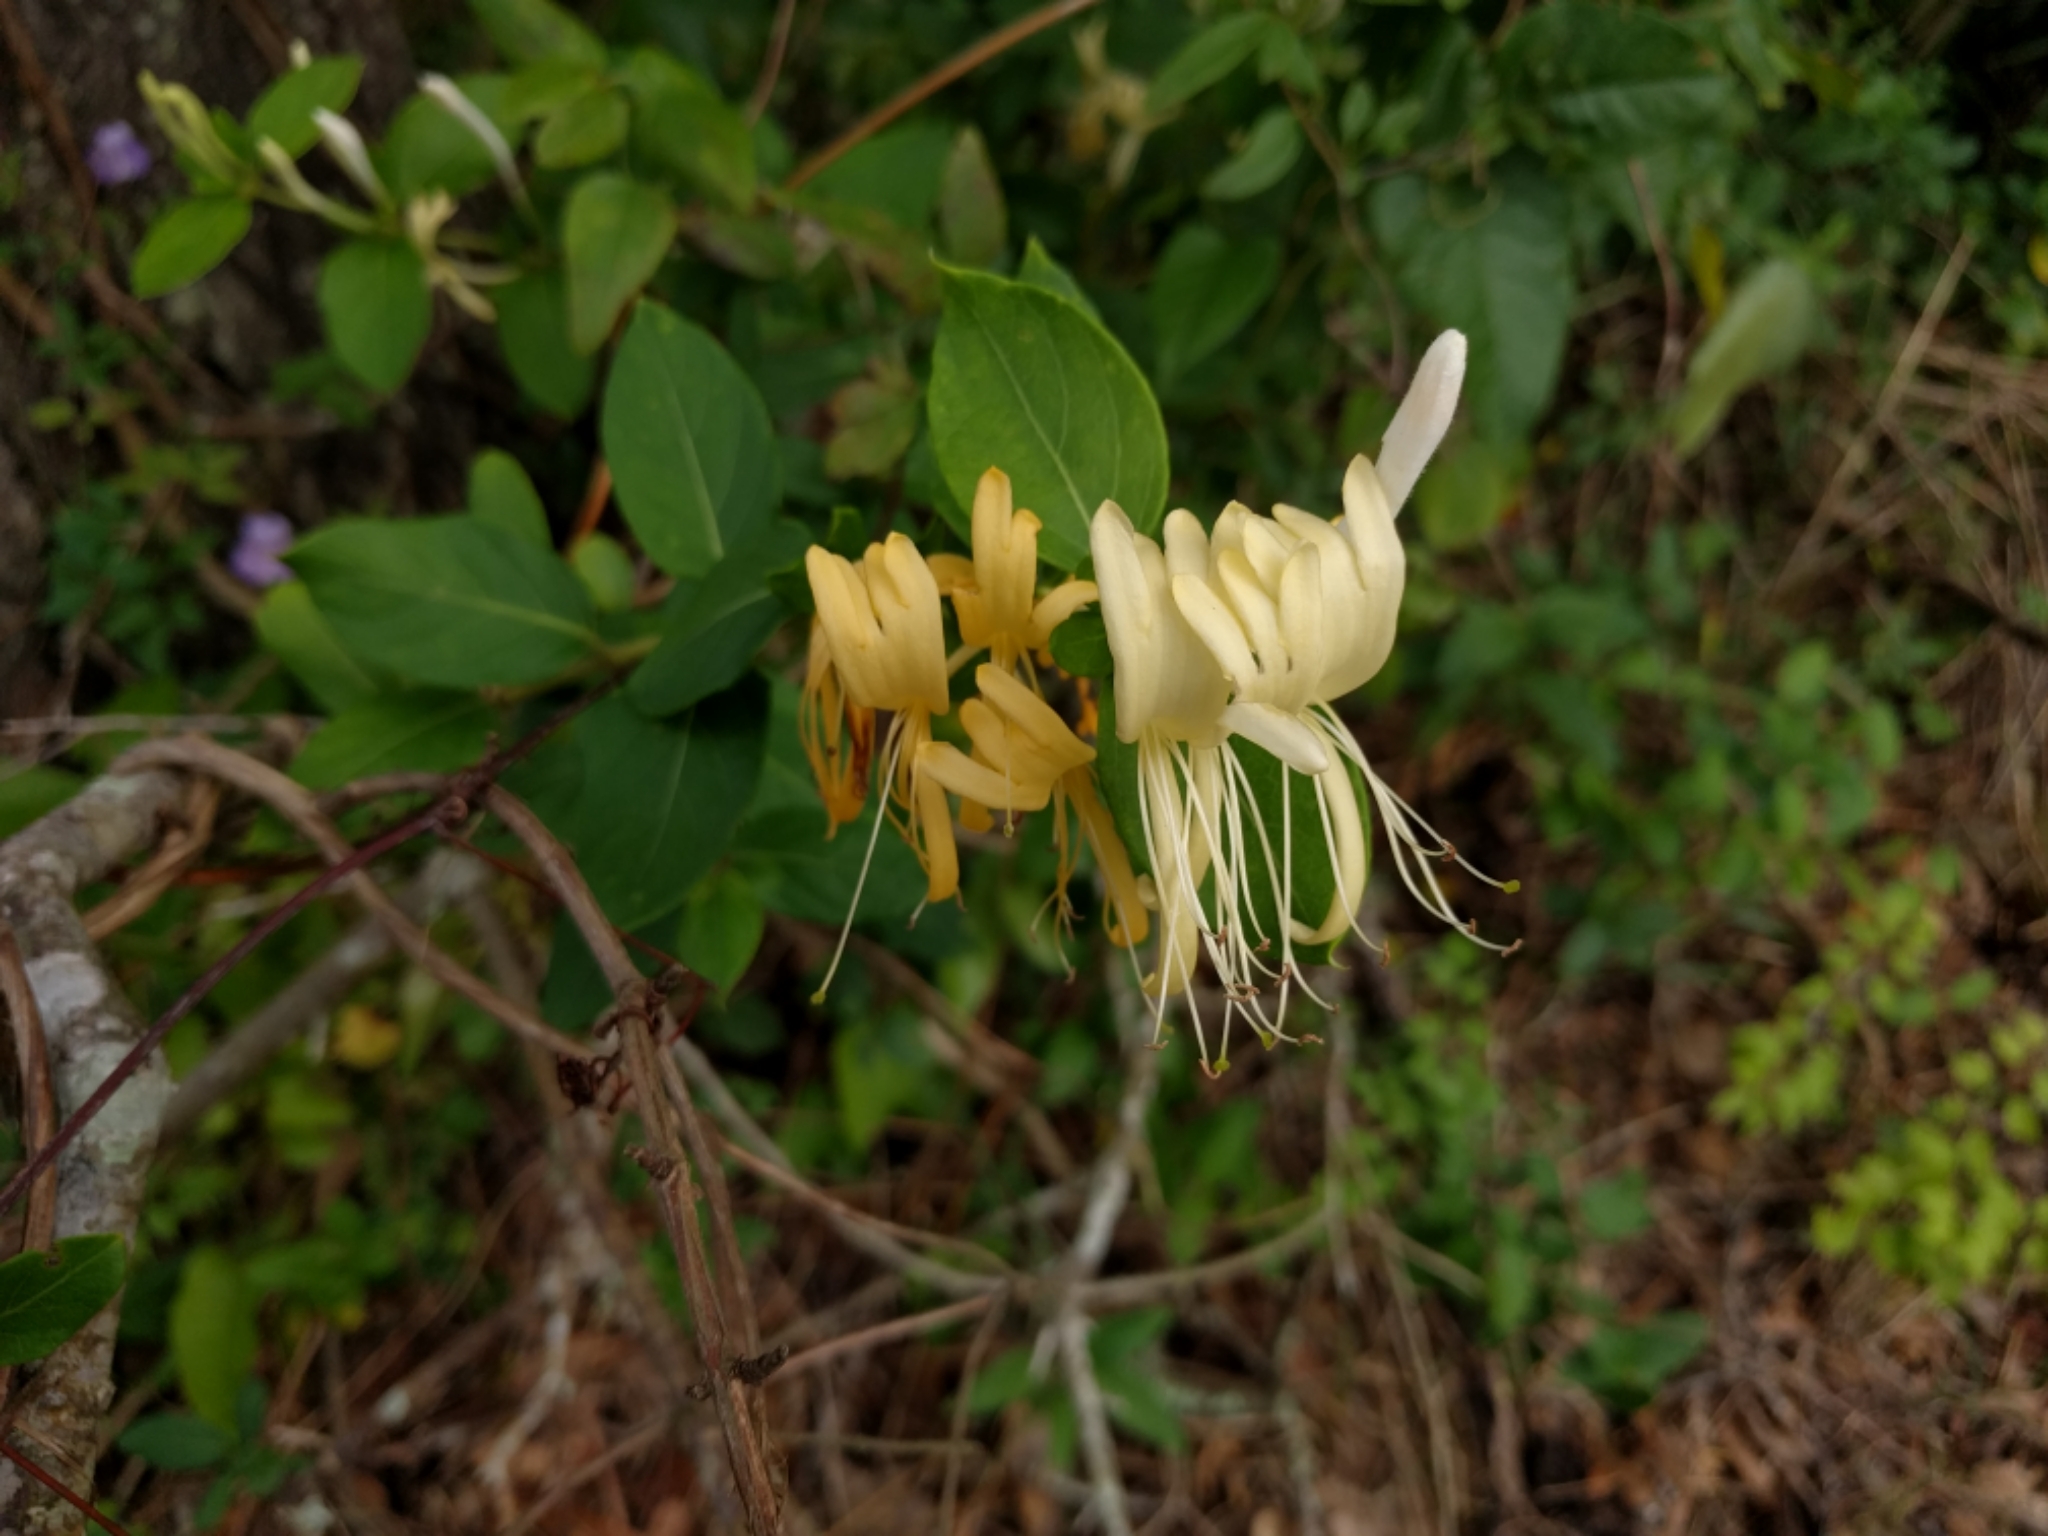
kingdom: Plantae
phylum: Tracheophyta
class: Magnoliopsida
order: Dipsacales
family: Caprifoliaceae
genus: Lonicera
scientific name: Lonicera japonica
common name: Japanese honeysuckle
